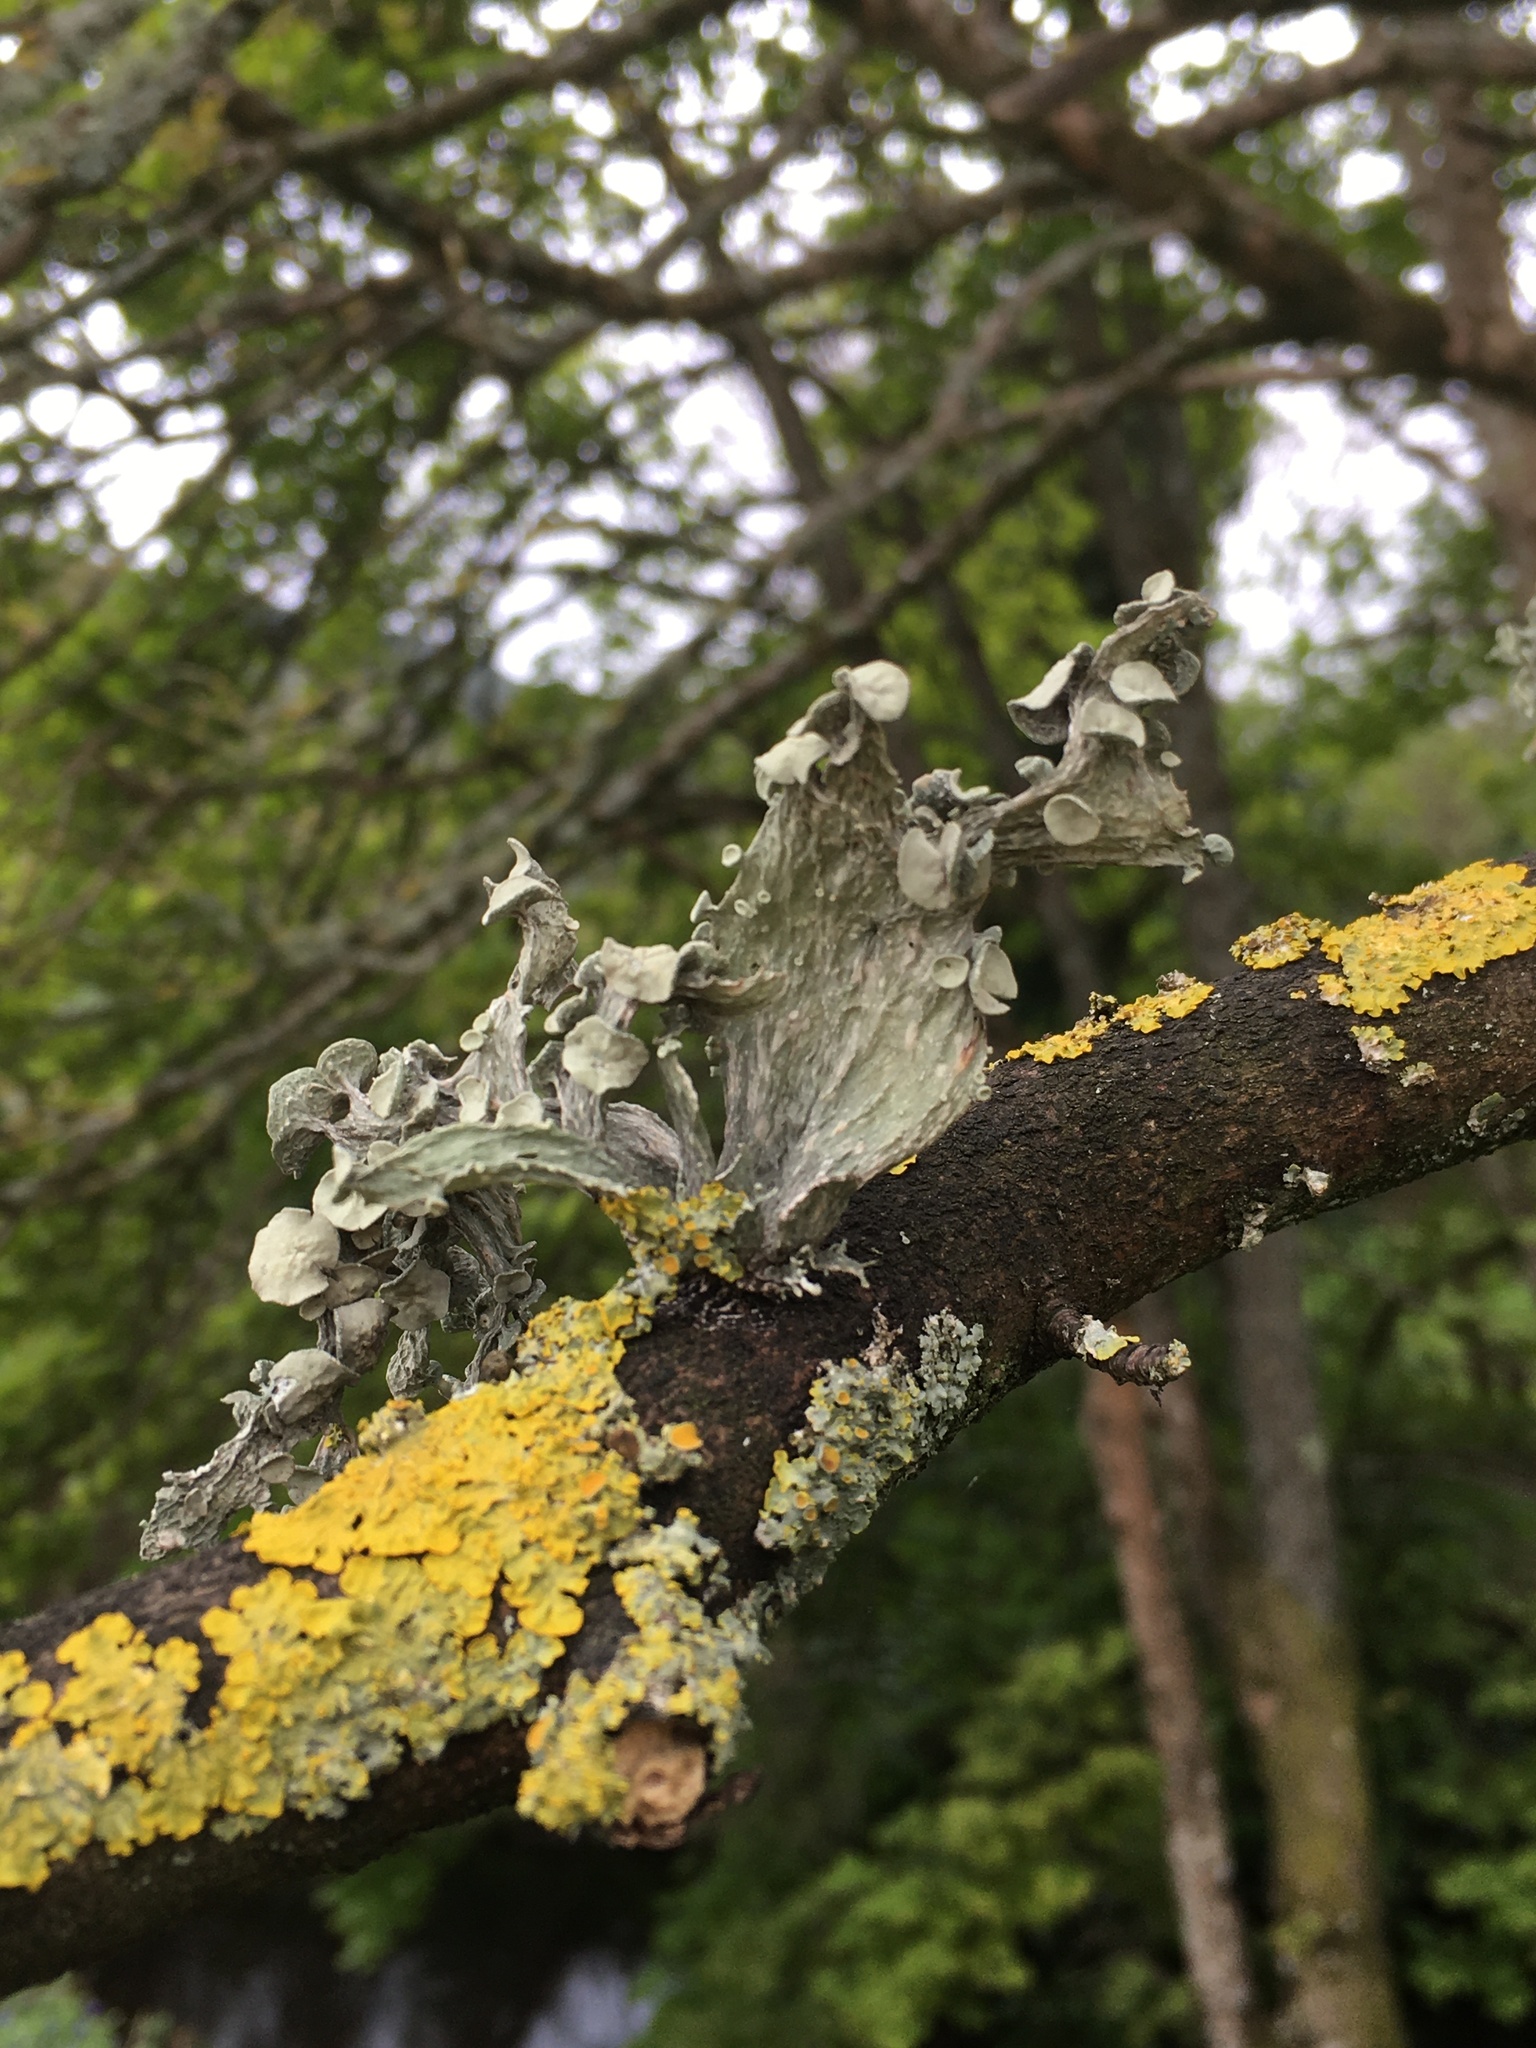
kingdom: Fungi
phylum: Ascomycota
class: Lecanoromycetes
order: Lecanorales
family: Ramalinaceae
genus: Ramalina
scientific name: Ramalina fraxinea
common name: Cartilage lichen
